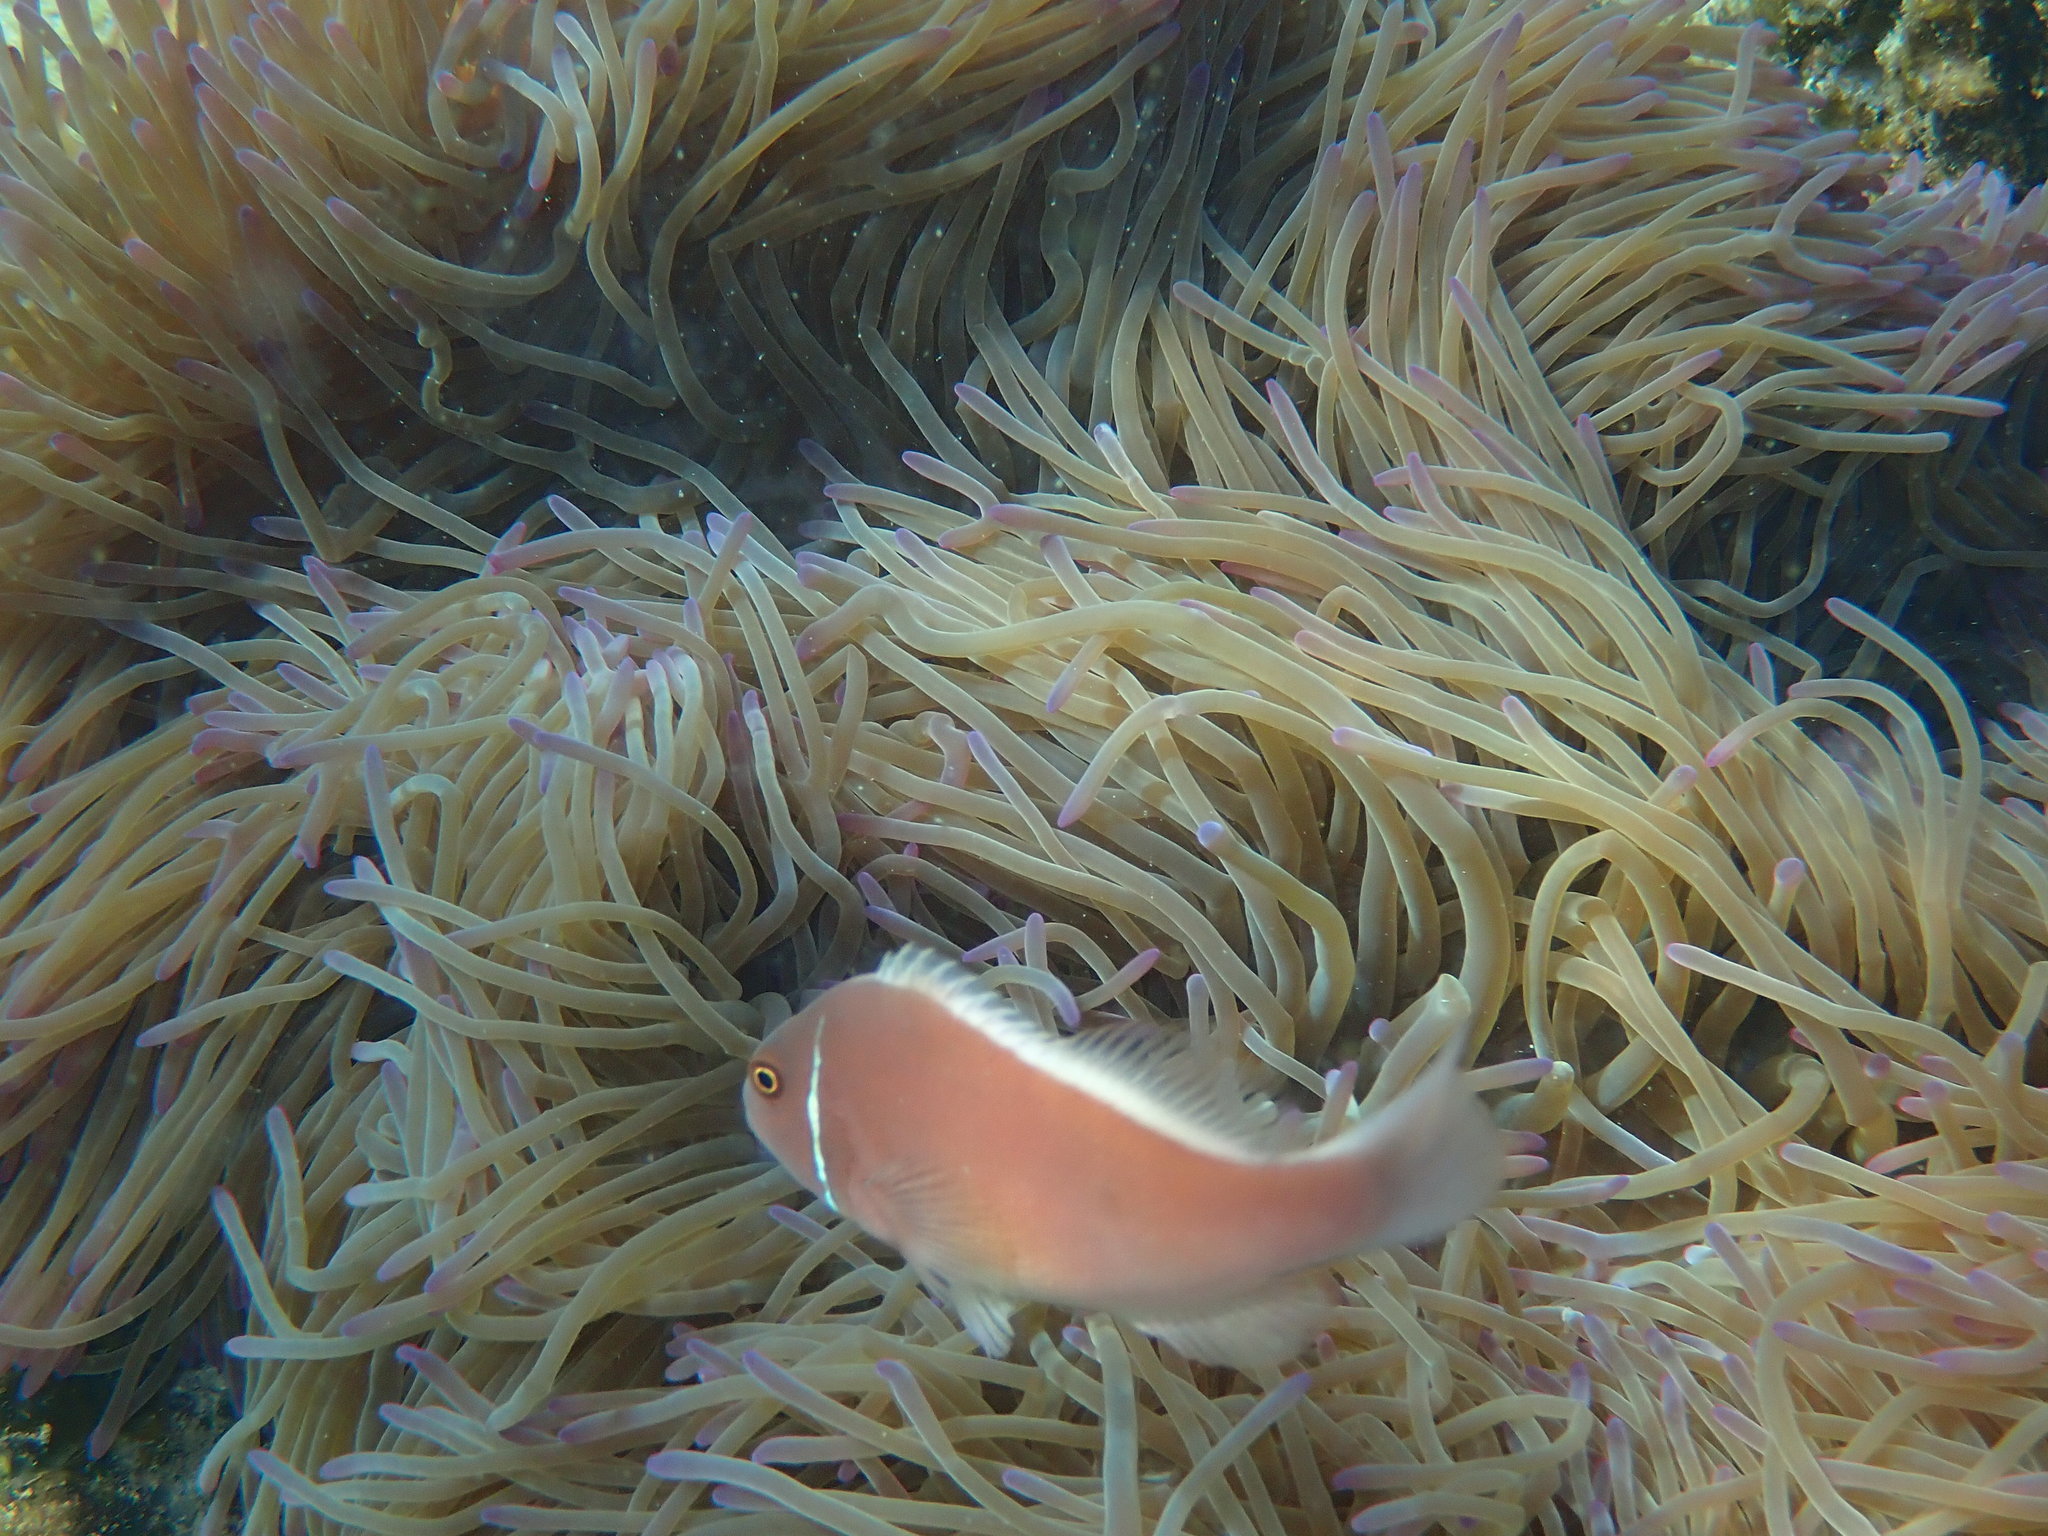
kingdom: Animalia
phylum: Cnidaria
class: Anthozoa
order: Actiniaria
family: Stichodactylidae
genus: Radianthus
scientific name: Radianthus magnifica
